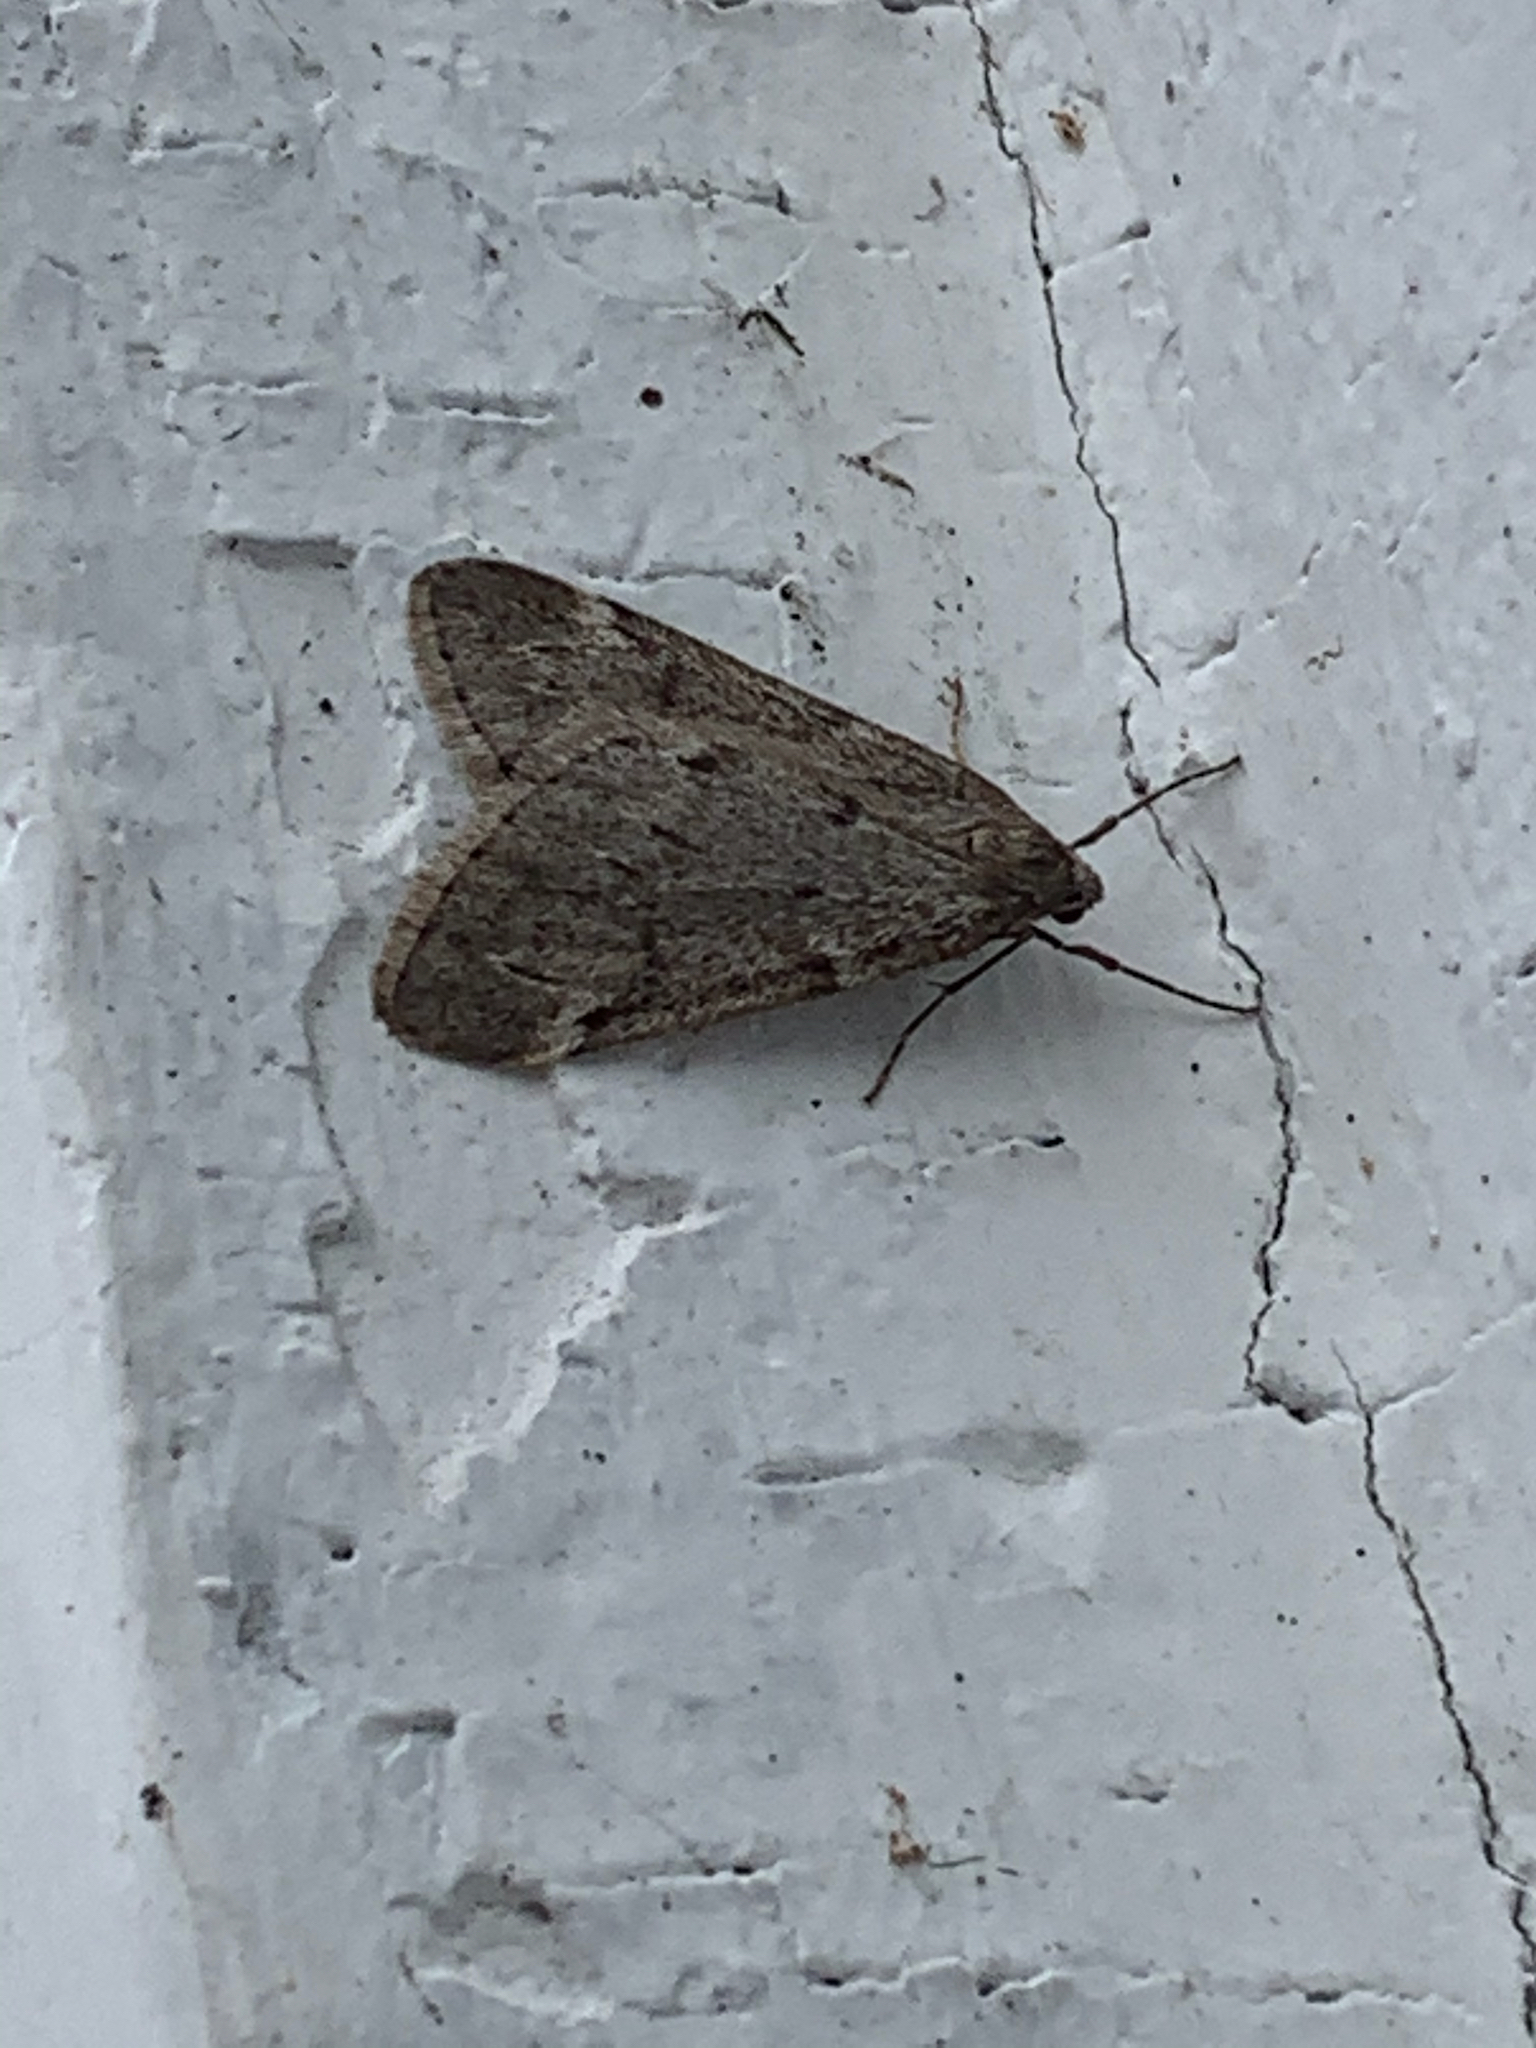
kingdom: Animalia
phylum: Arthropoda
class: Insecta
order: Lepidoptera
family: Geometridae
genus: Alsophila
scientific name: Alsophila pometaria
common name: Fall cankerworm
